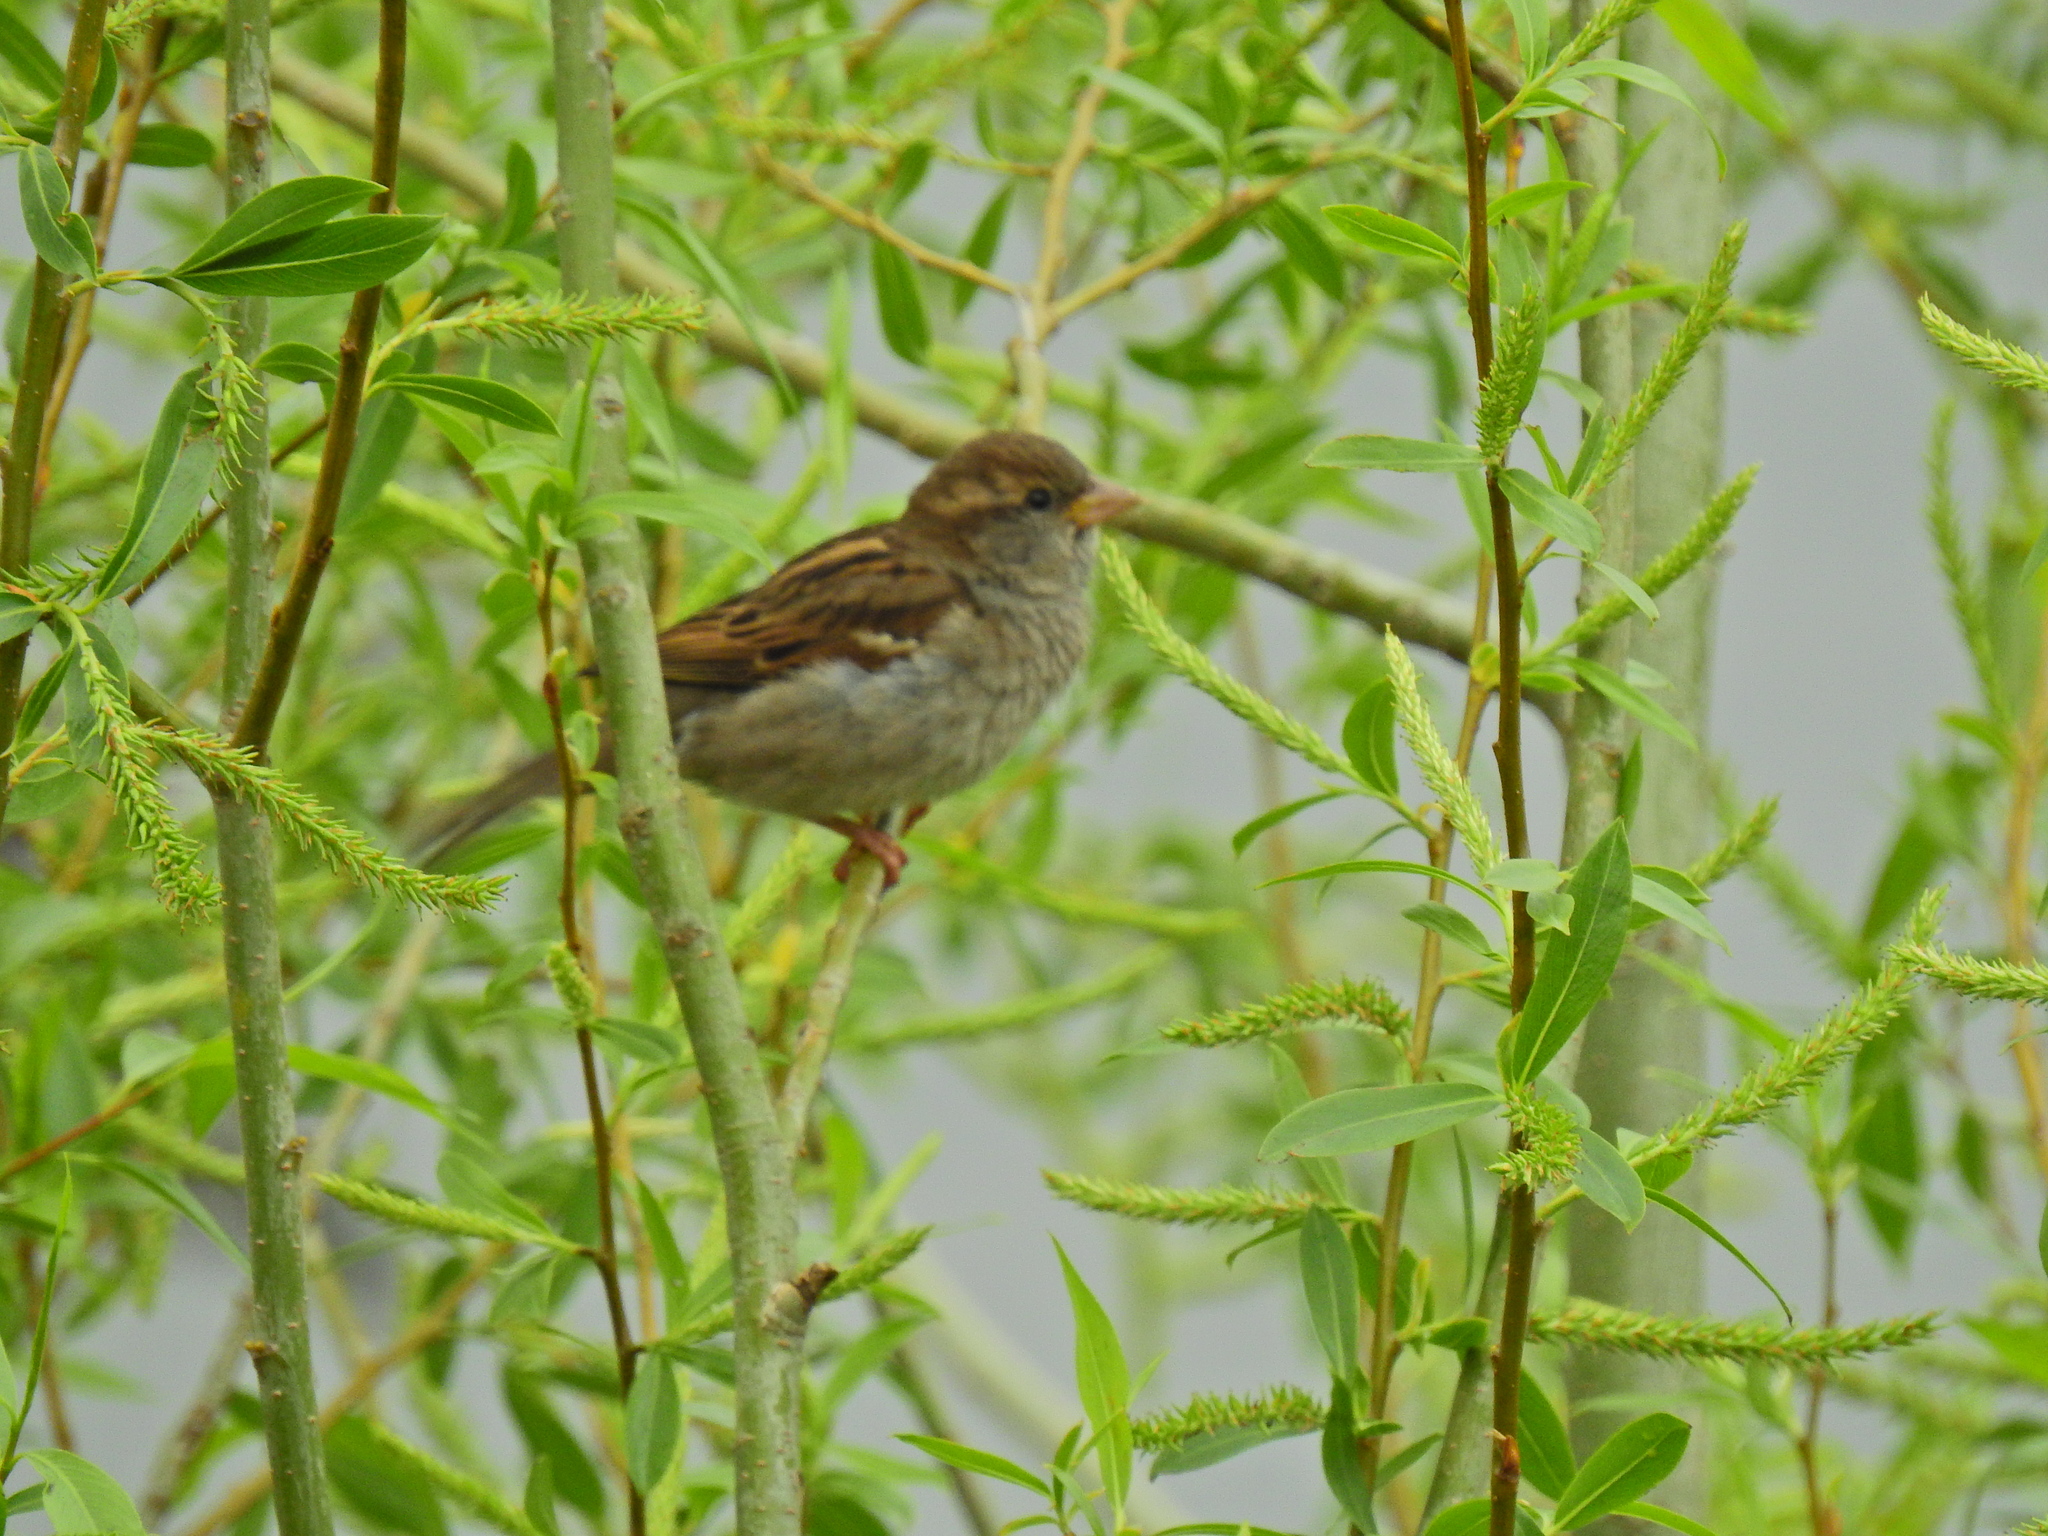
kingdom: Animalia
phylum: Chordata
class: Aves
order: Passeriformes
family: Passeridae
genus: Passer
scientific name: Passer domesticus
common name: House sparrow
